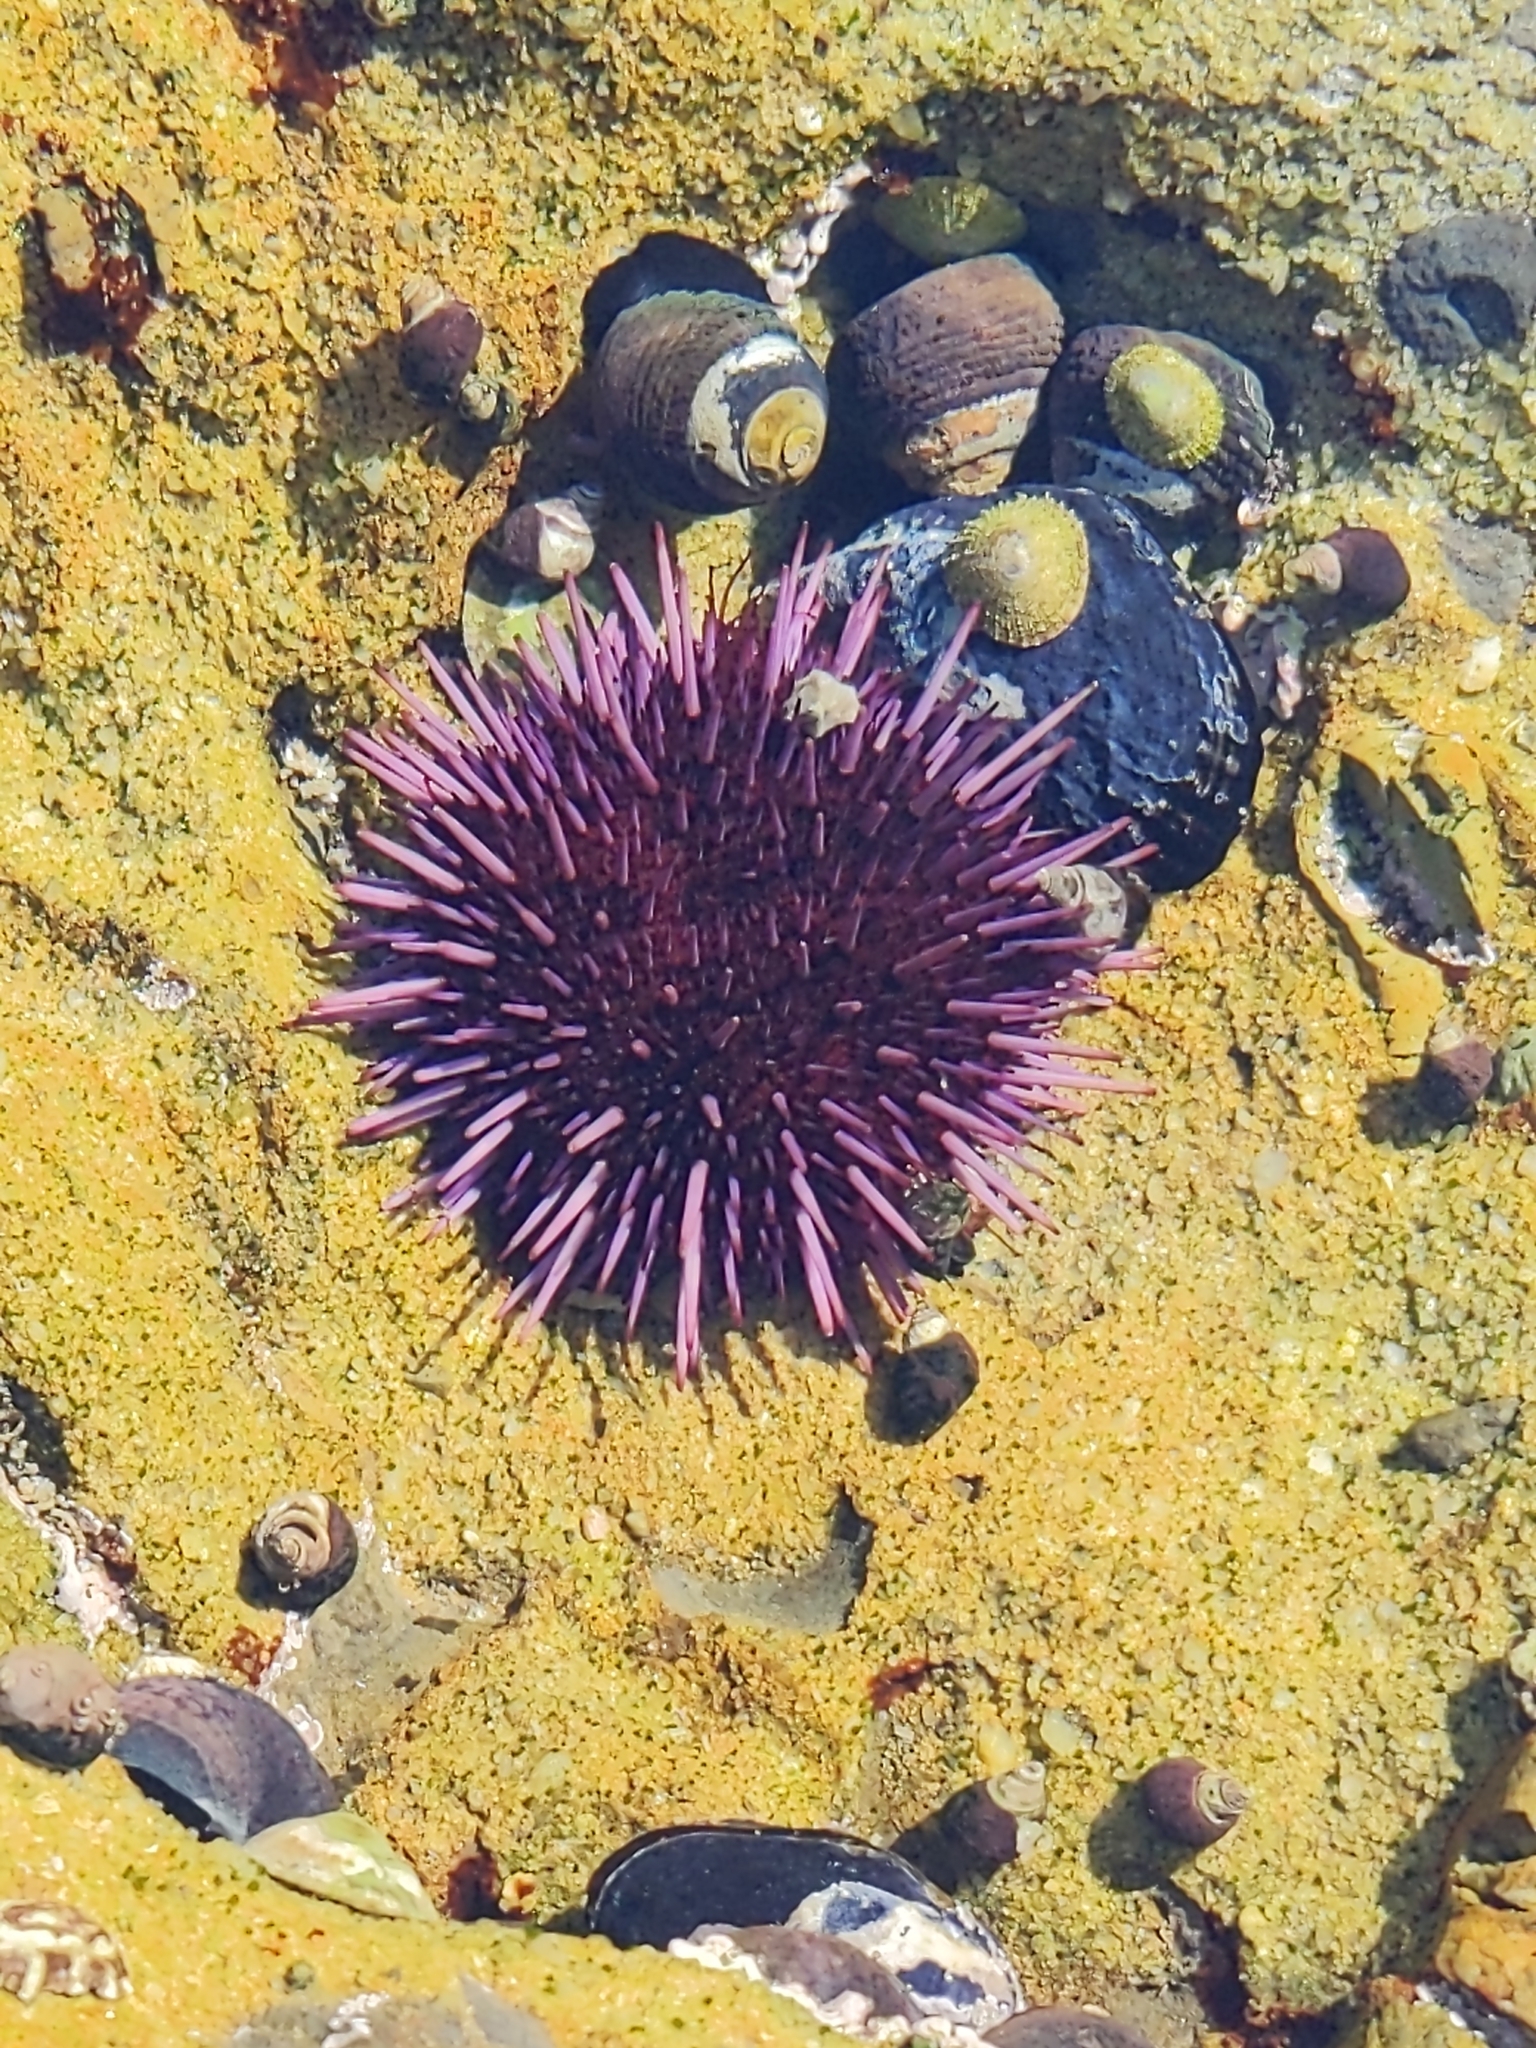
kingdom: Animalia
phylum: Echinodermata
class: Echinoidea
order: Camarodonta
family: Strongylocentrotidae
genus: Strongylocentrotus
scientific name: Strongylocentrotus purpuratus
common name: Purple sea urchin
